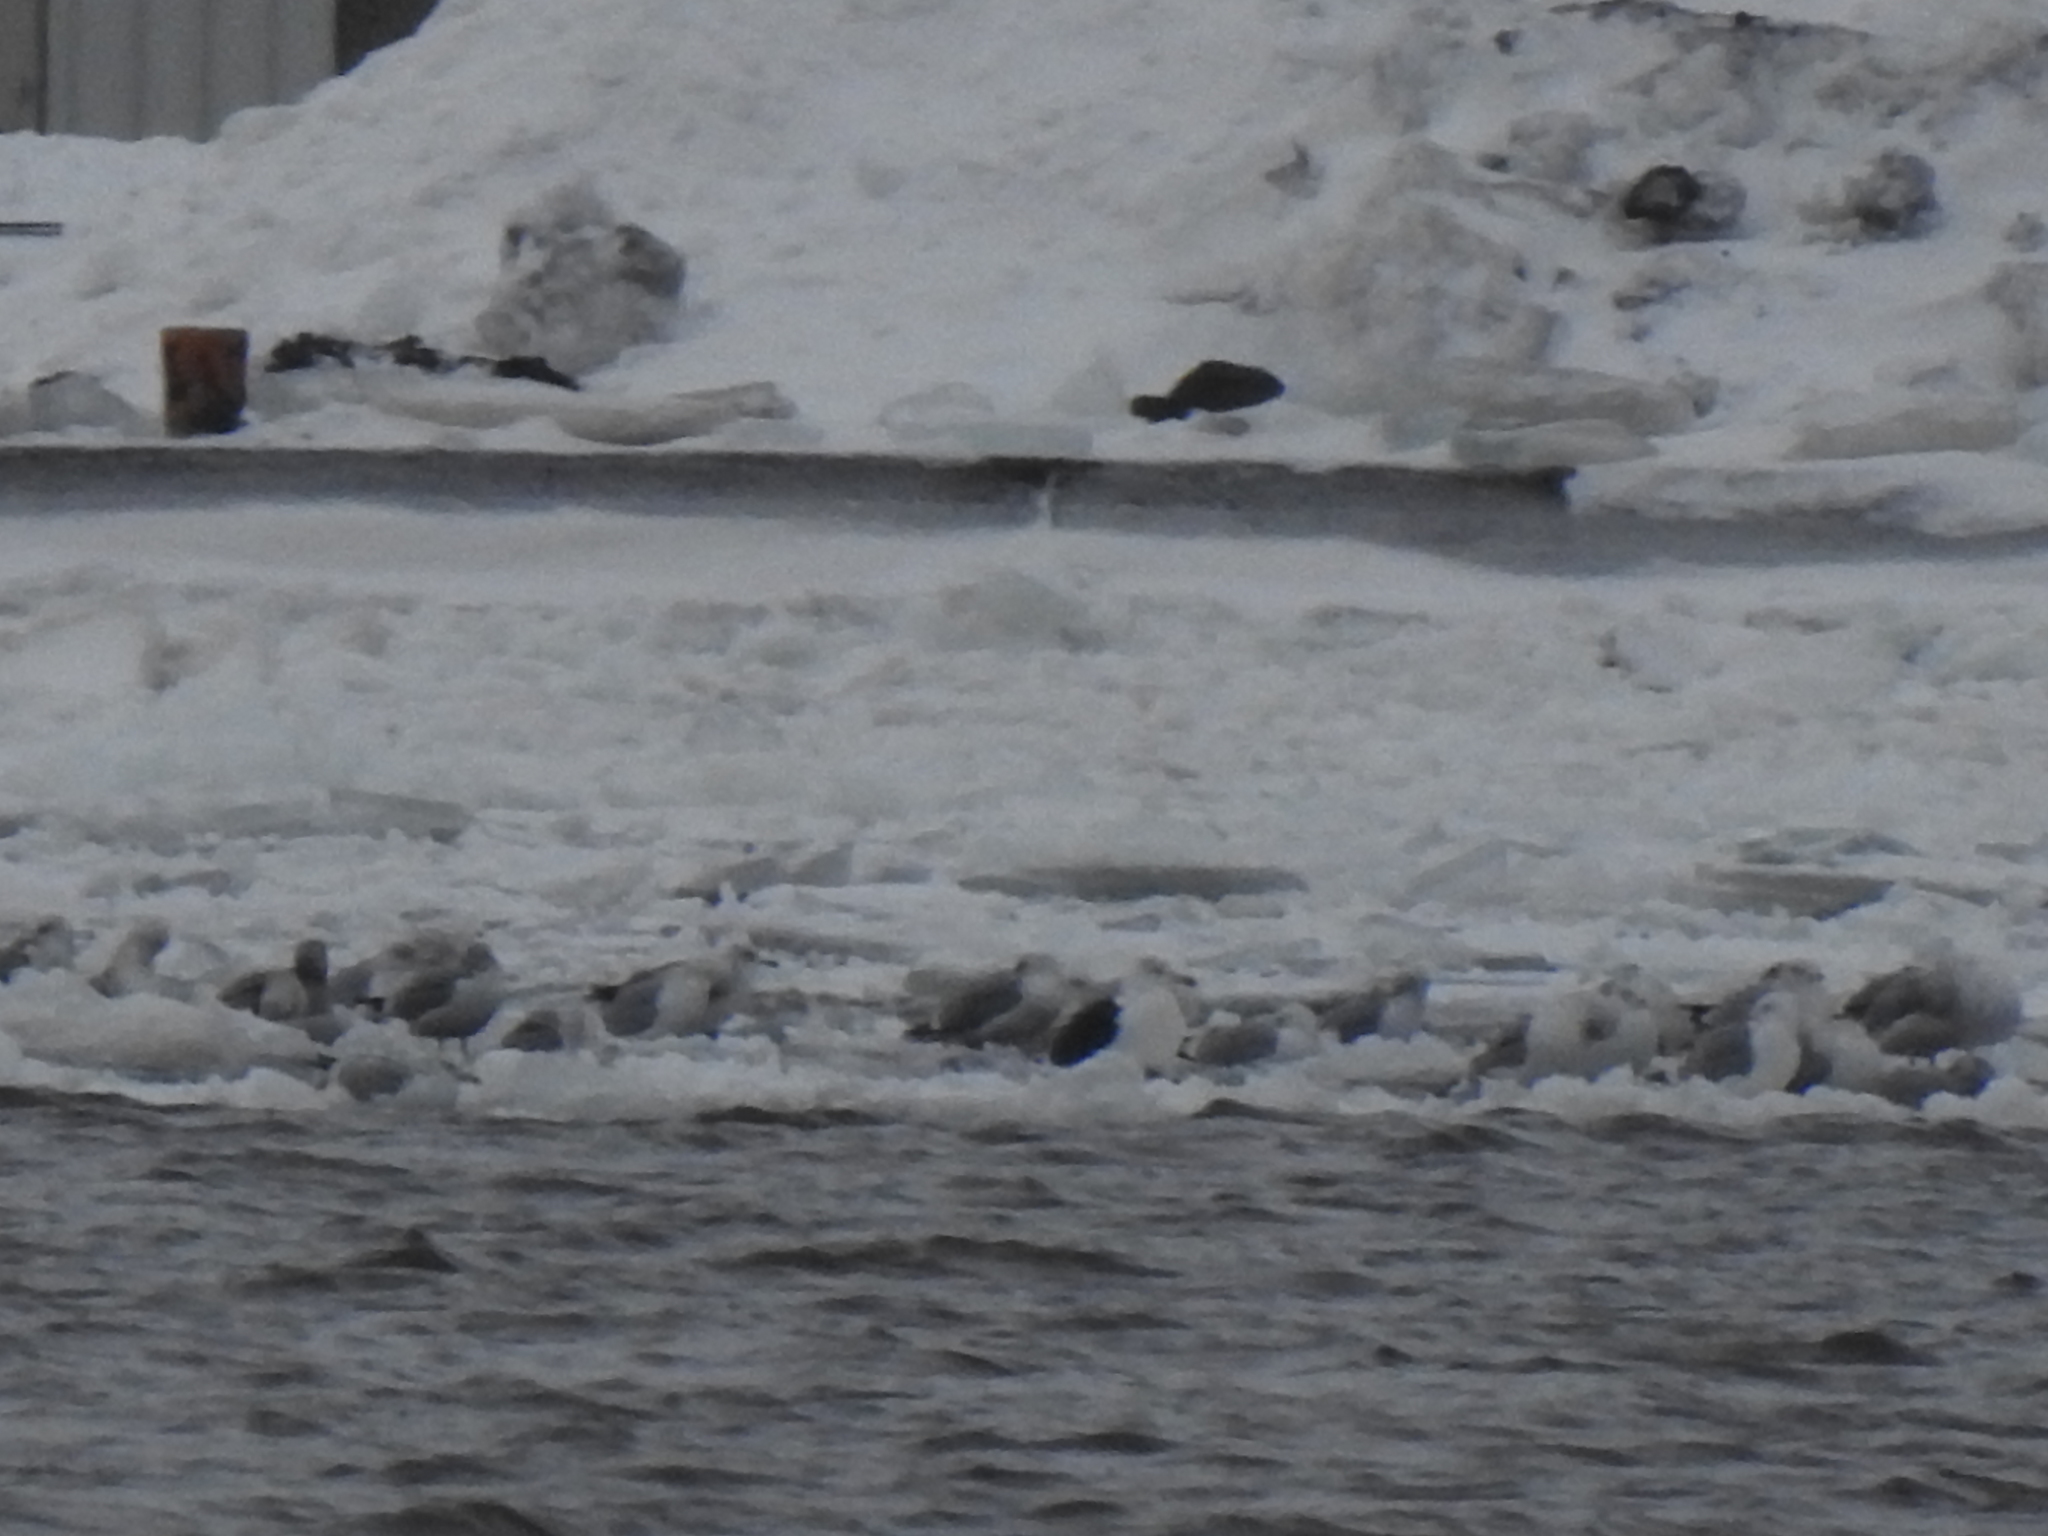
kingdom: Animalia
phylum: Chordata
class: Aves
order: Charadriiformes
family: Laridae
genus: Larus
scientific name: Larus marinus
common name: Great black-backed gull
